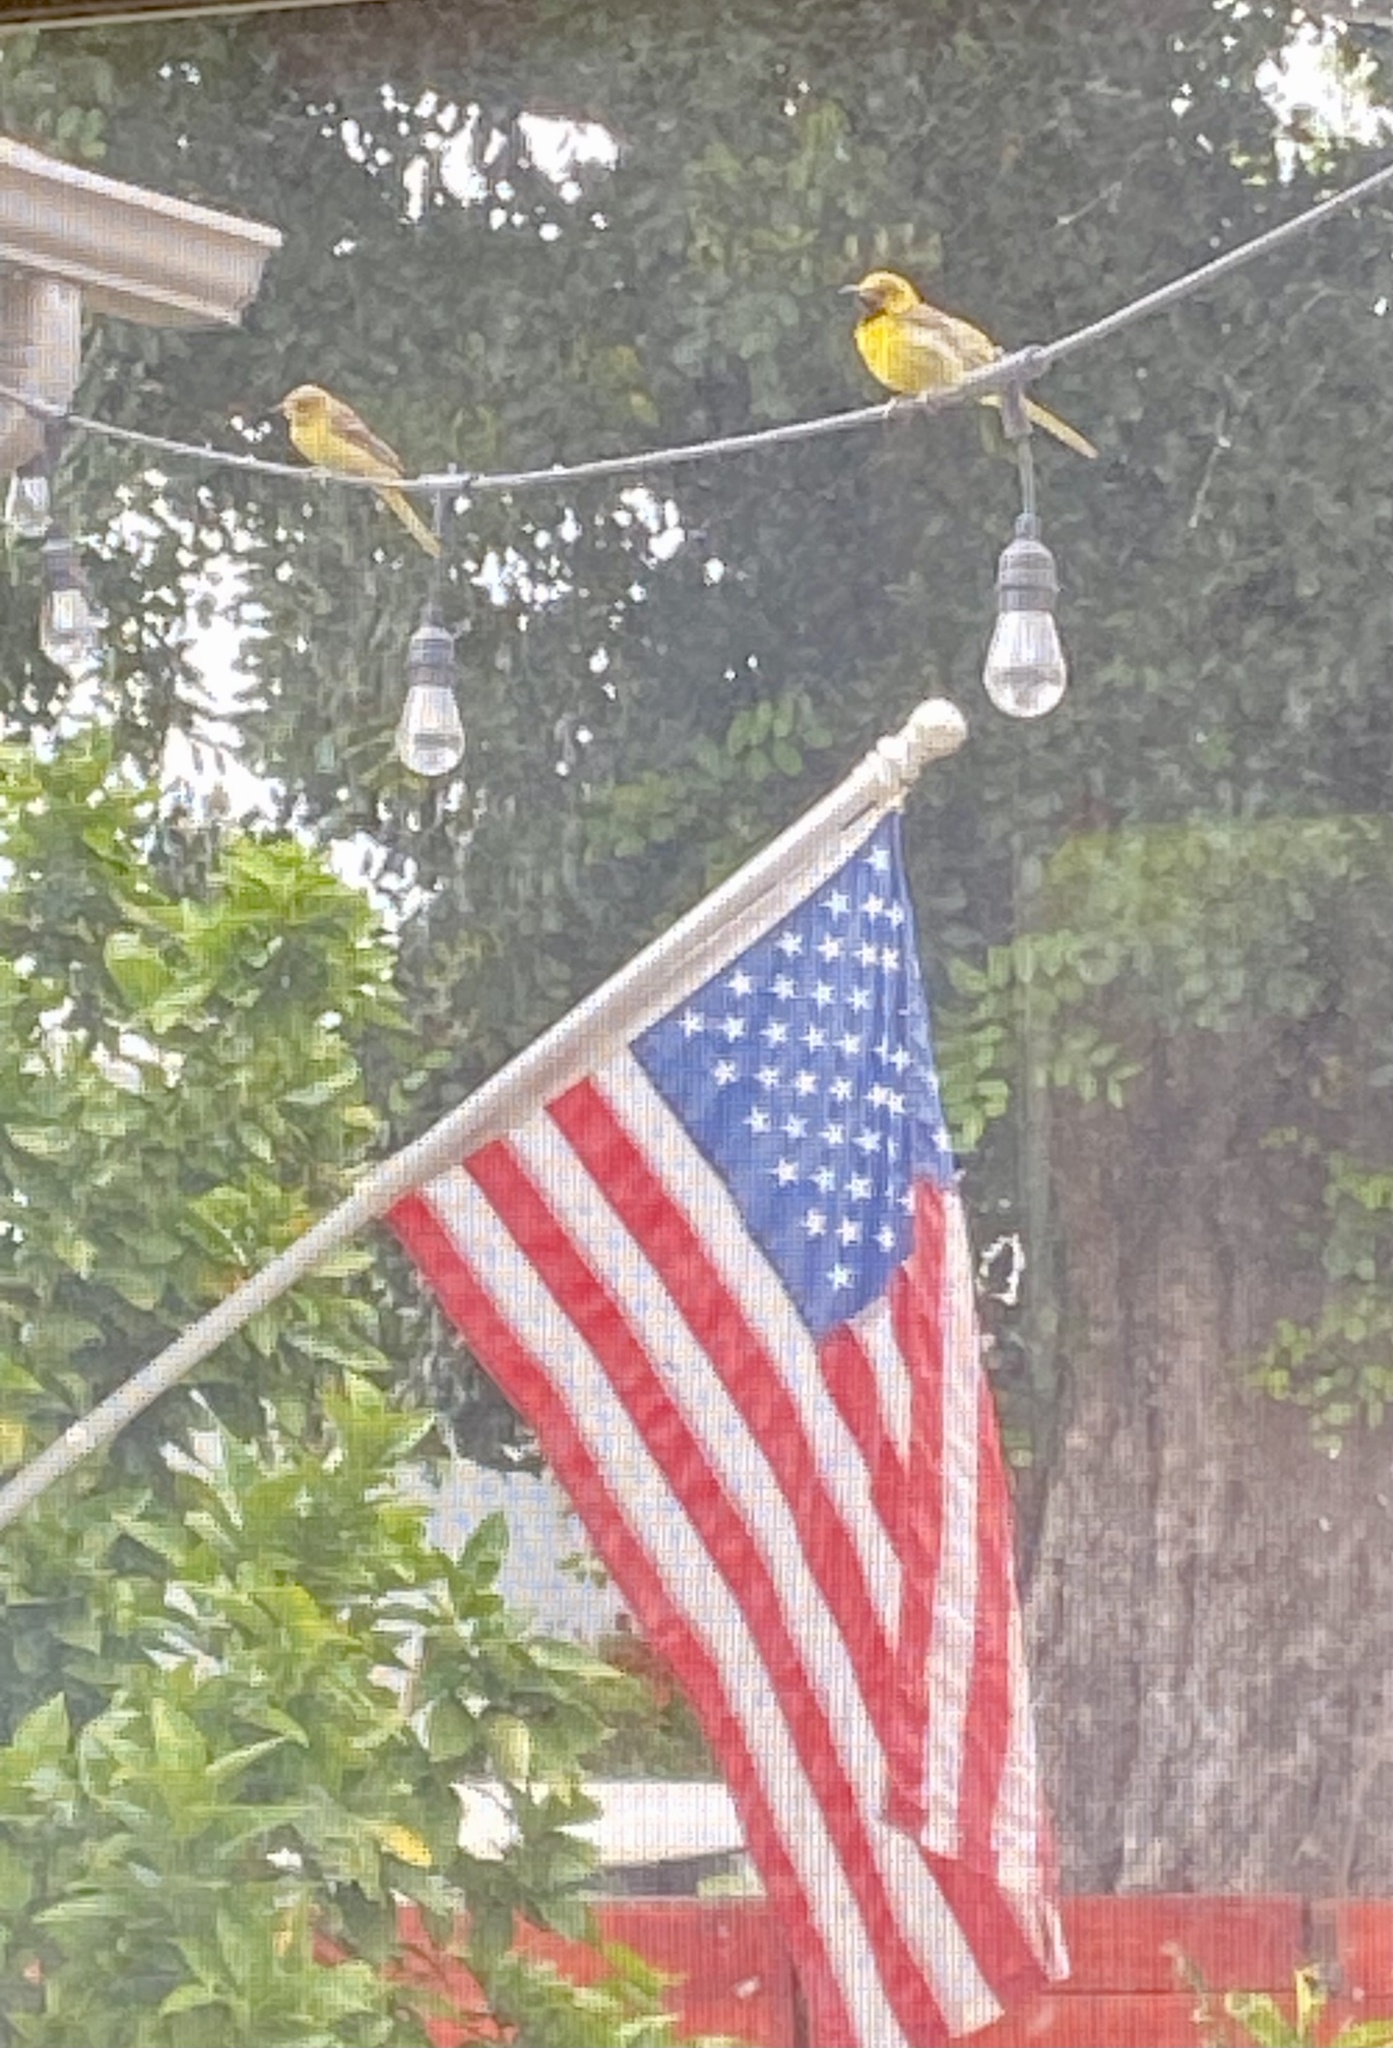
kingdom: Animalia
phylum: Chordata
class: Aves
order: Passeriformes
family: Icteridae
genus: Icterus
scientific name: Icterus cucullatus
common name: Hooded oriole
